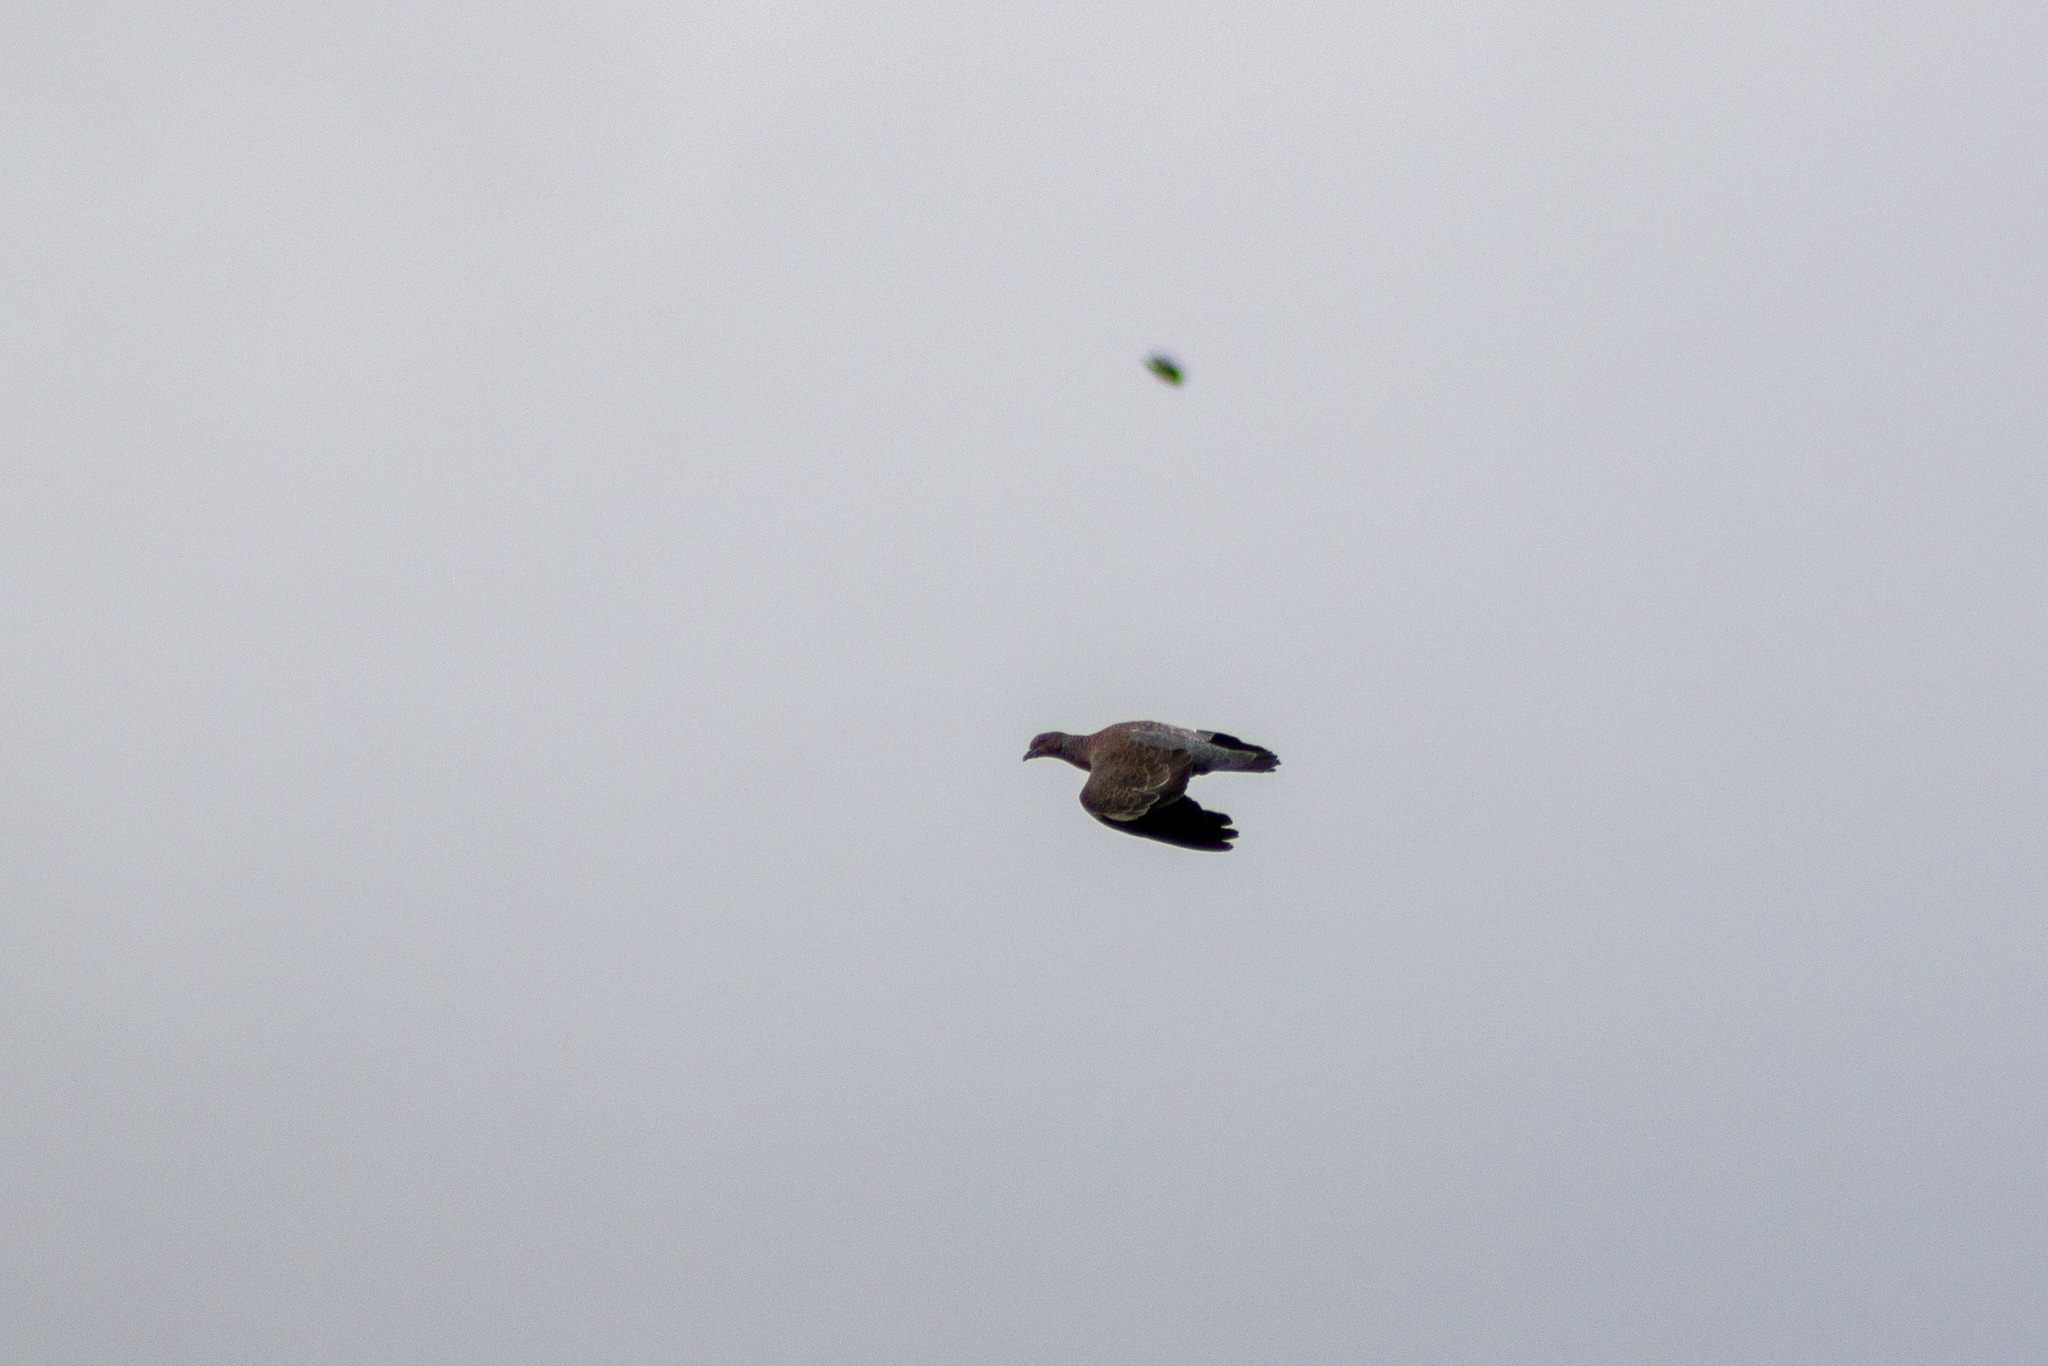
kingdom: Animalia
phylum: Chordata
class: Aves
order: Columbiformes
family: Columbidae
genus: Patagioenas
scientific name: Patagioenas picazuro
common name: Picazuro pigeon
